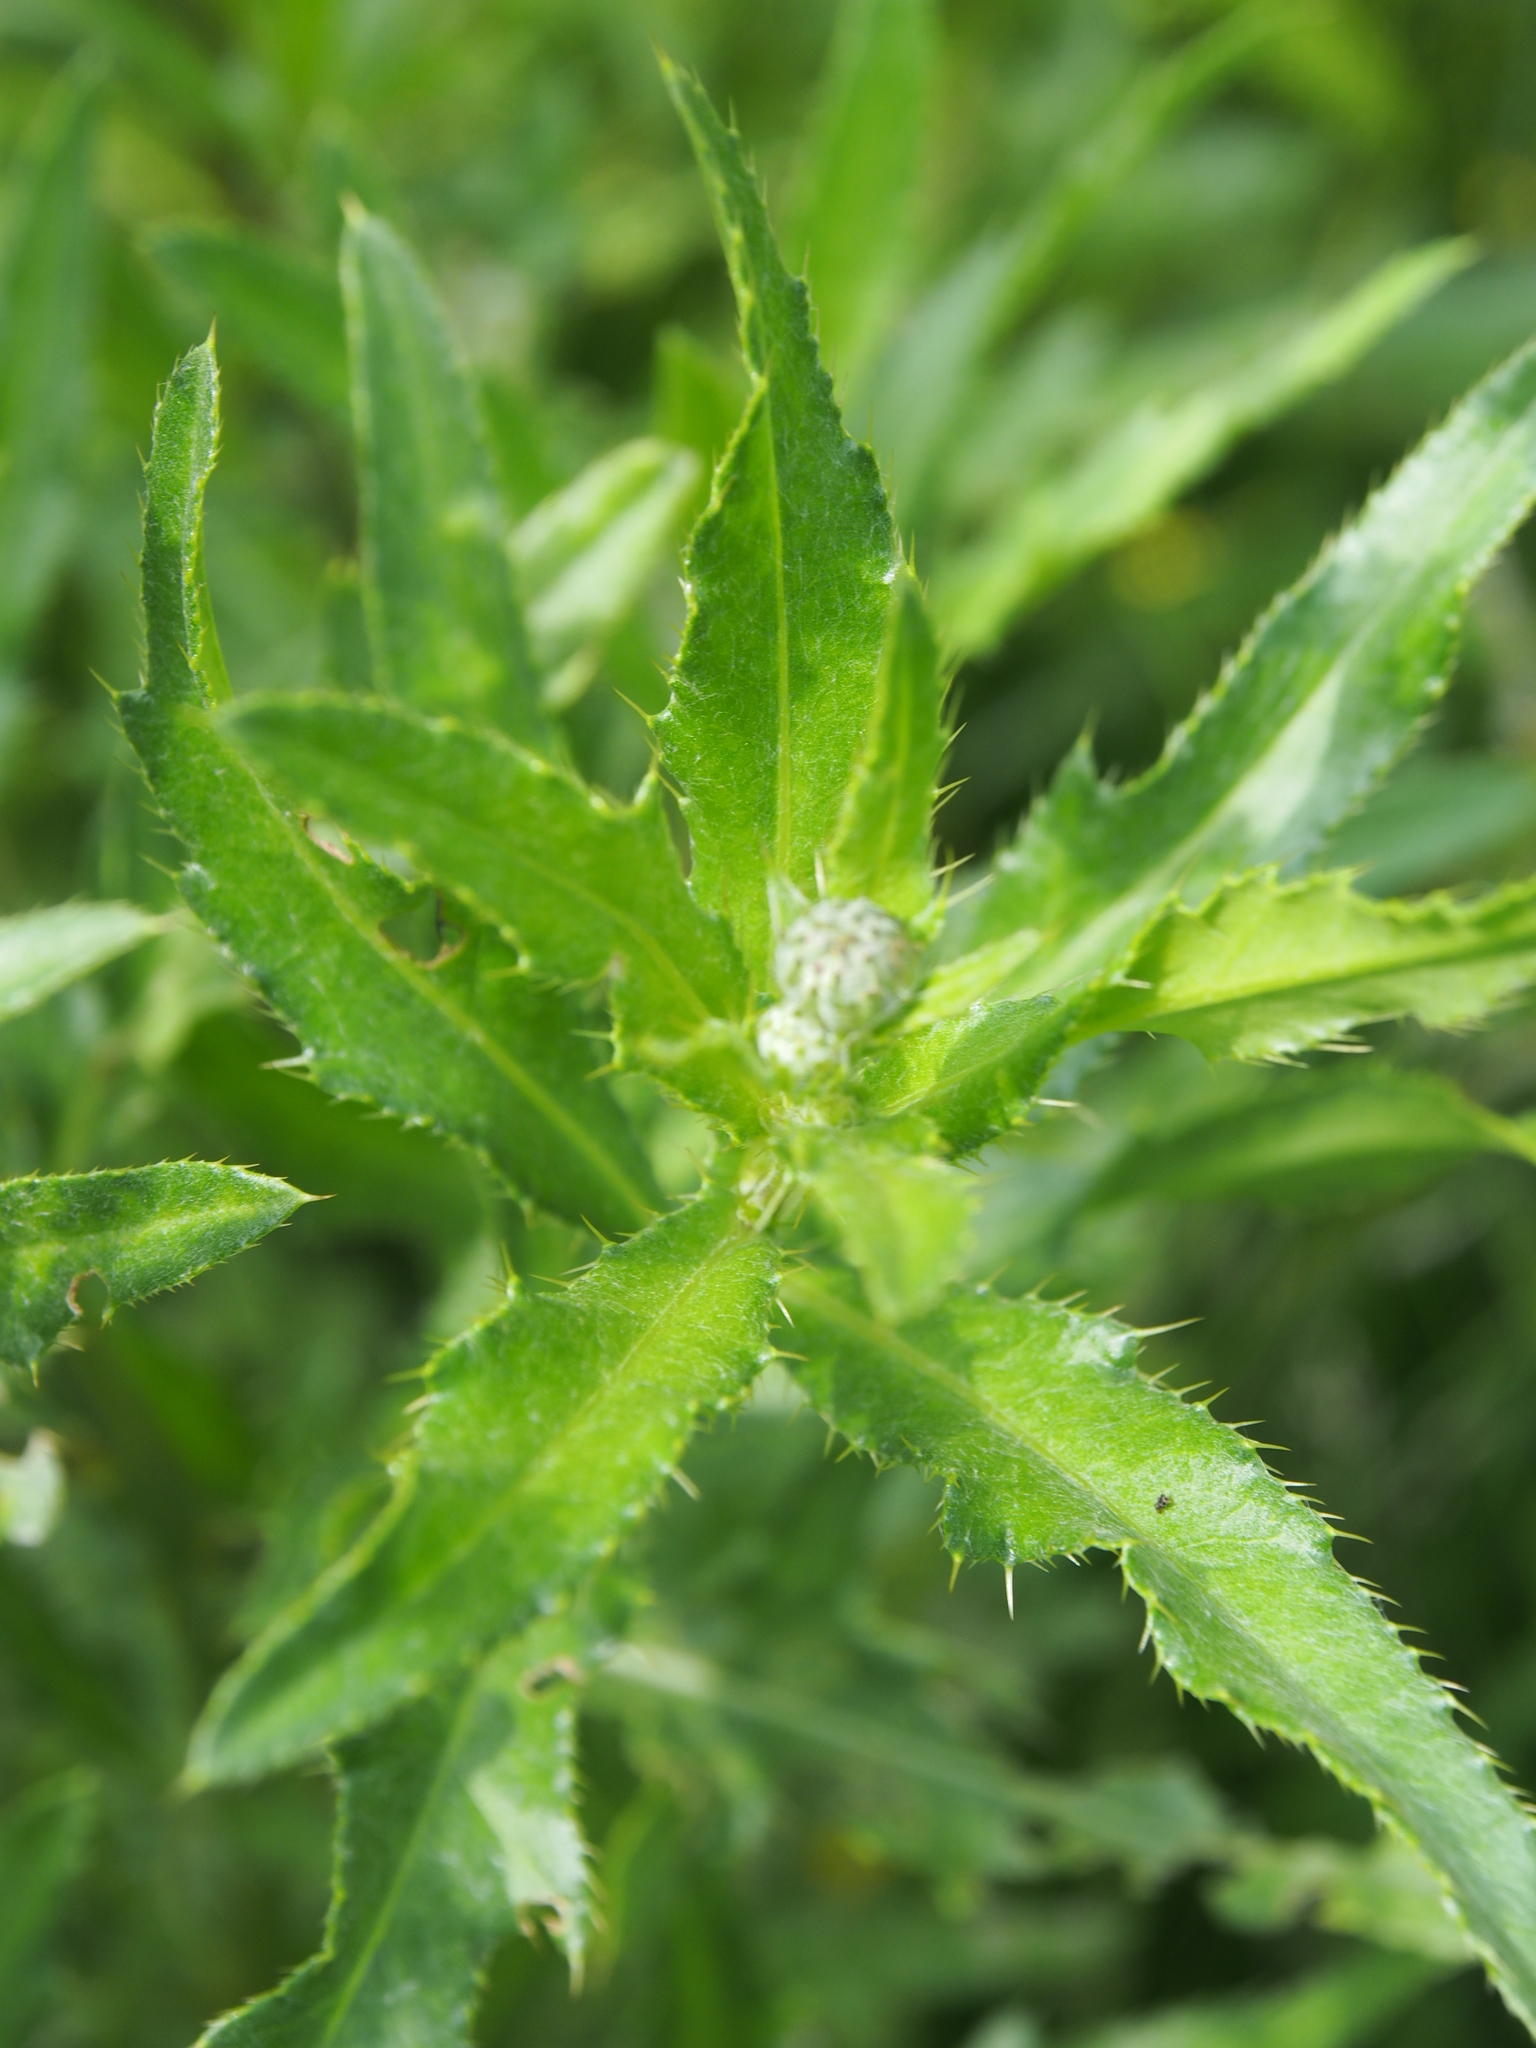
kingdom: Plantae
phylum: Tracheophyta
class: Magnoliopsida
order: Asterales
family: Asteraceae
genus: Cirsium
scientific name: Cirsium arvense
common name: Creeping thistle
